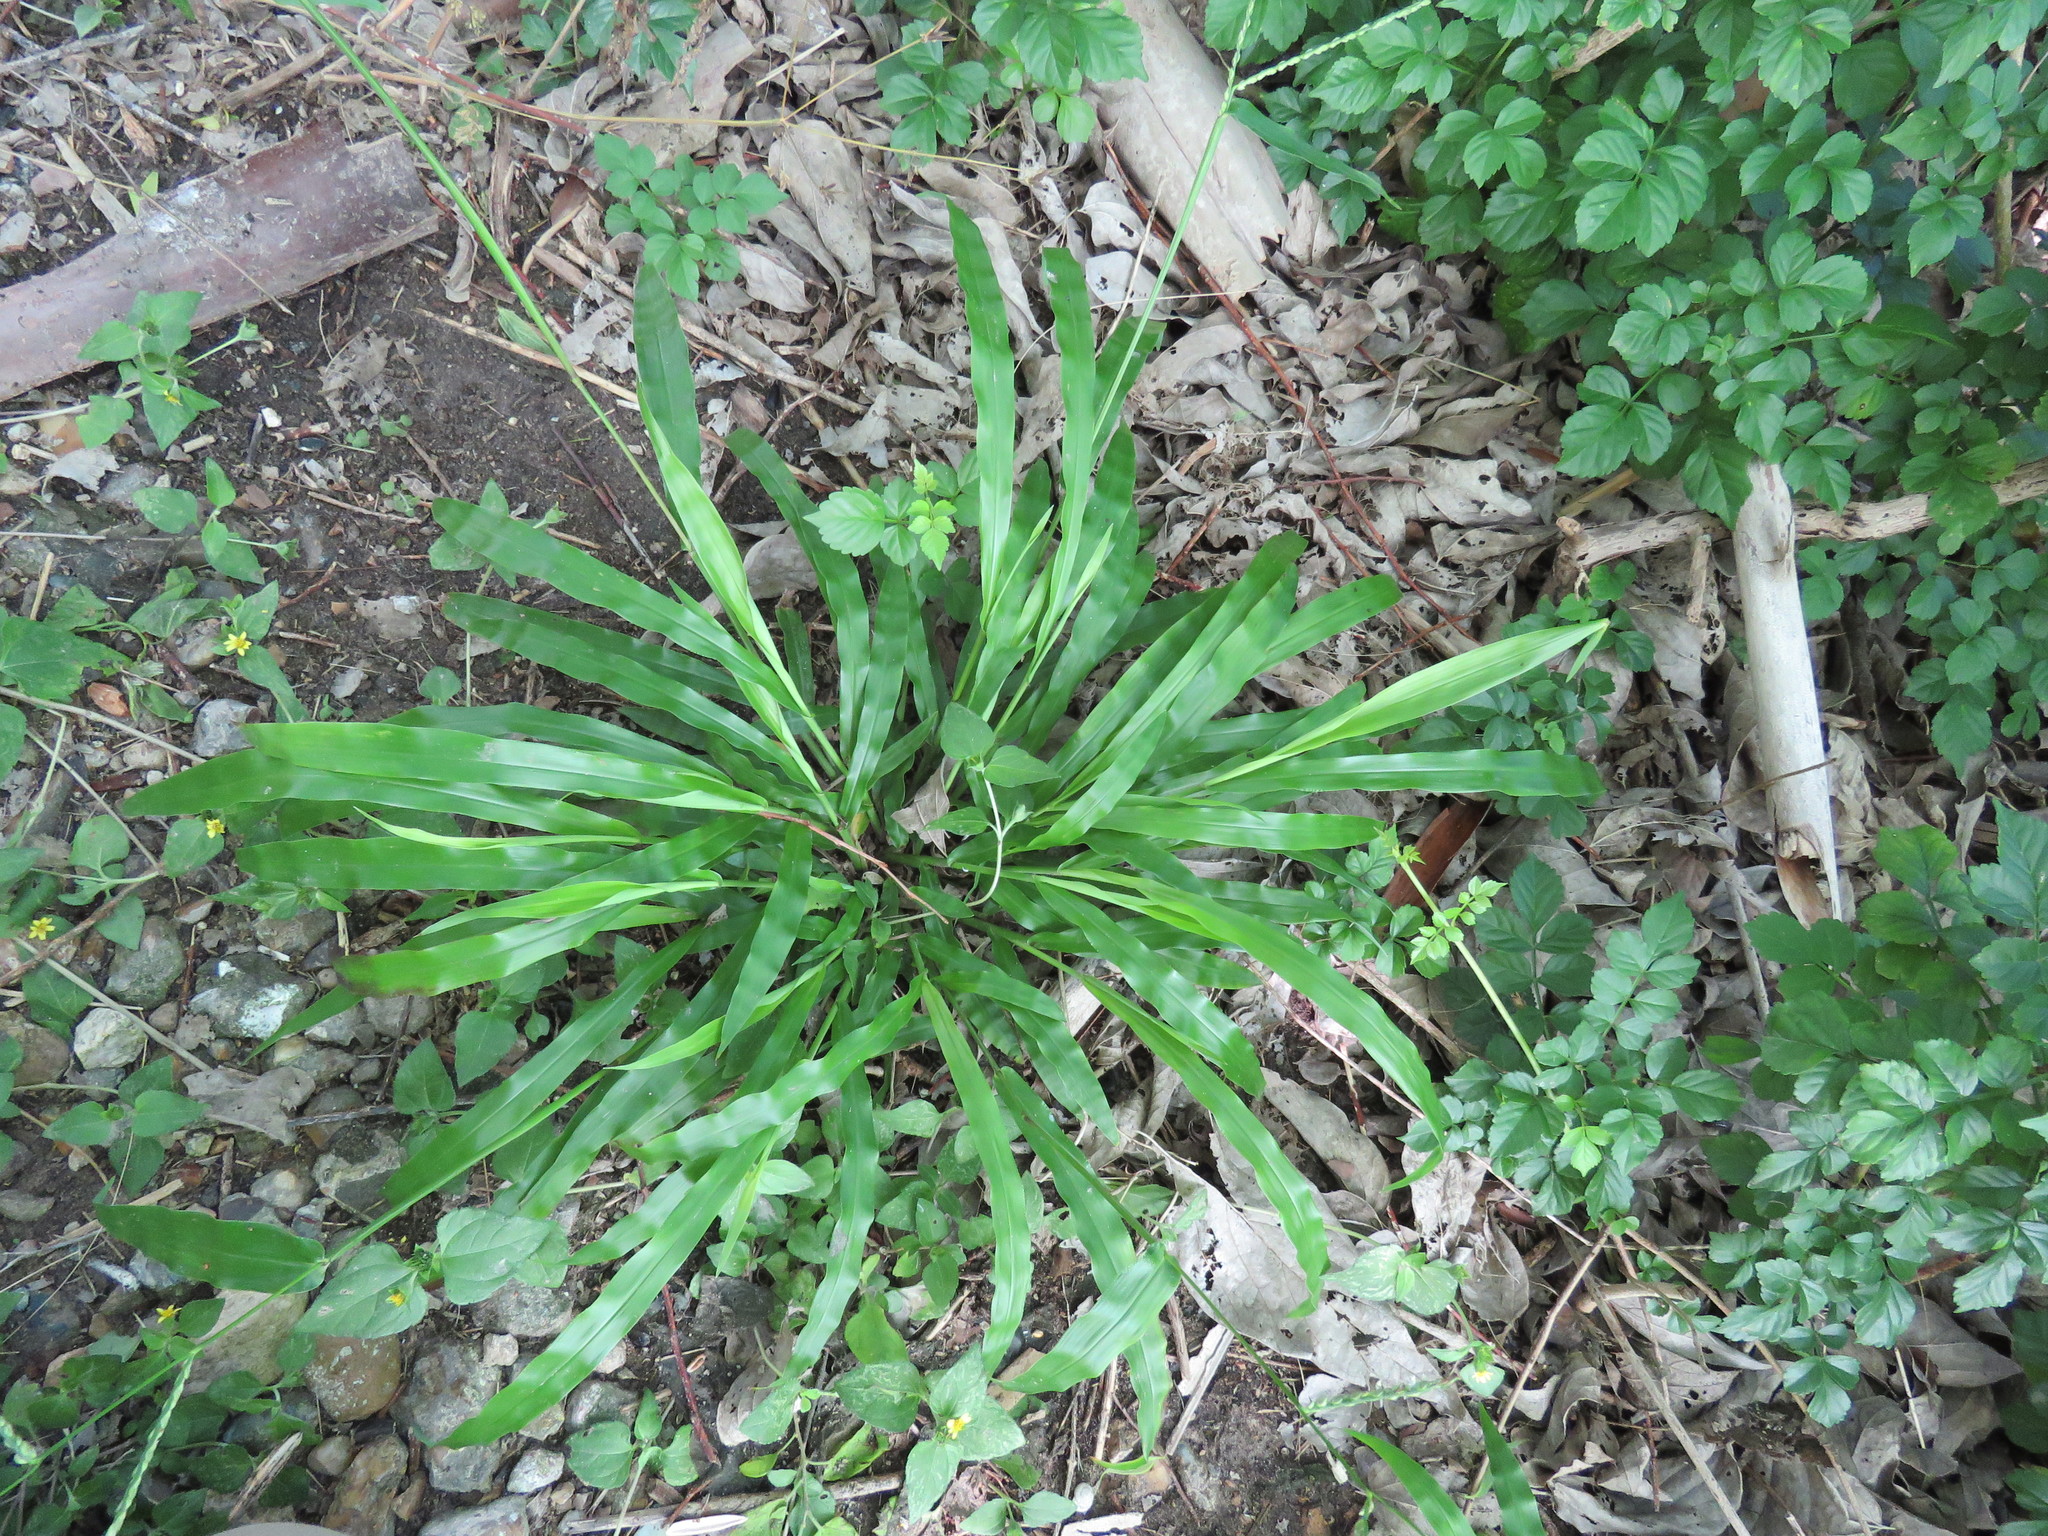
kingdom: Plantae
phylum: Tracheophyta
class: Liliopsida
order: Poales
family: Poaceae
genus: Paspalum
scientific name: Paspalum langei
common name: Rusty-seed paspalum
